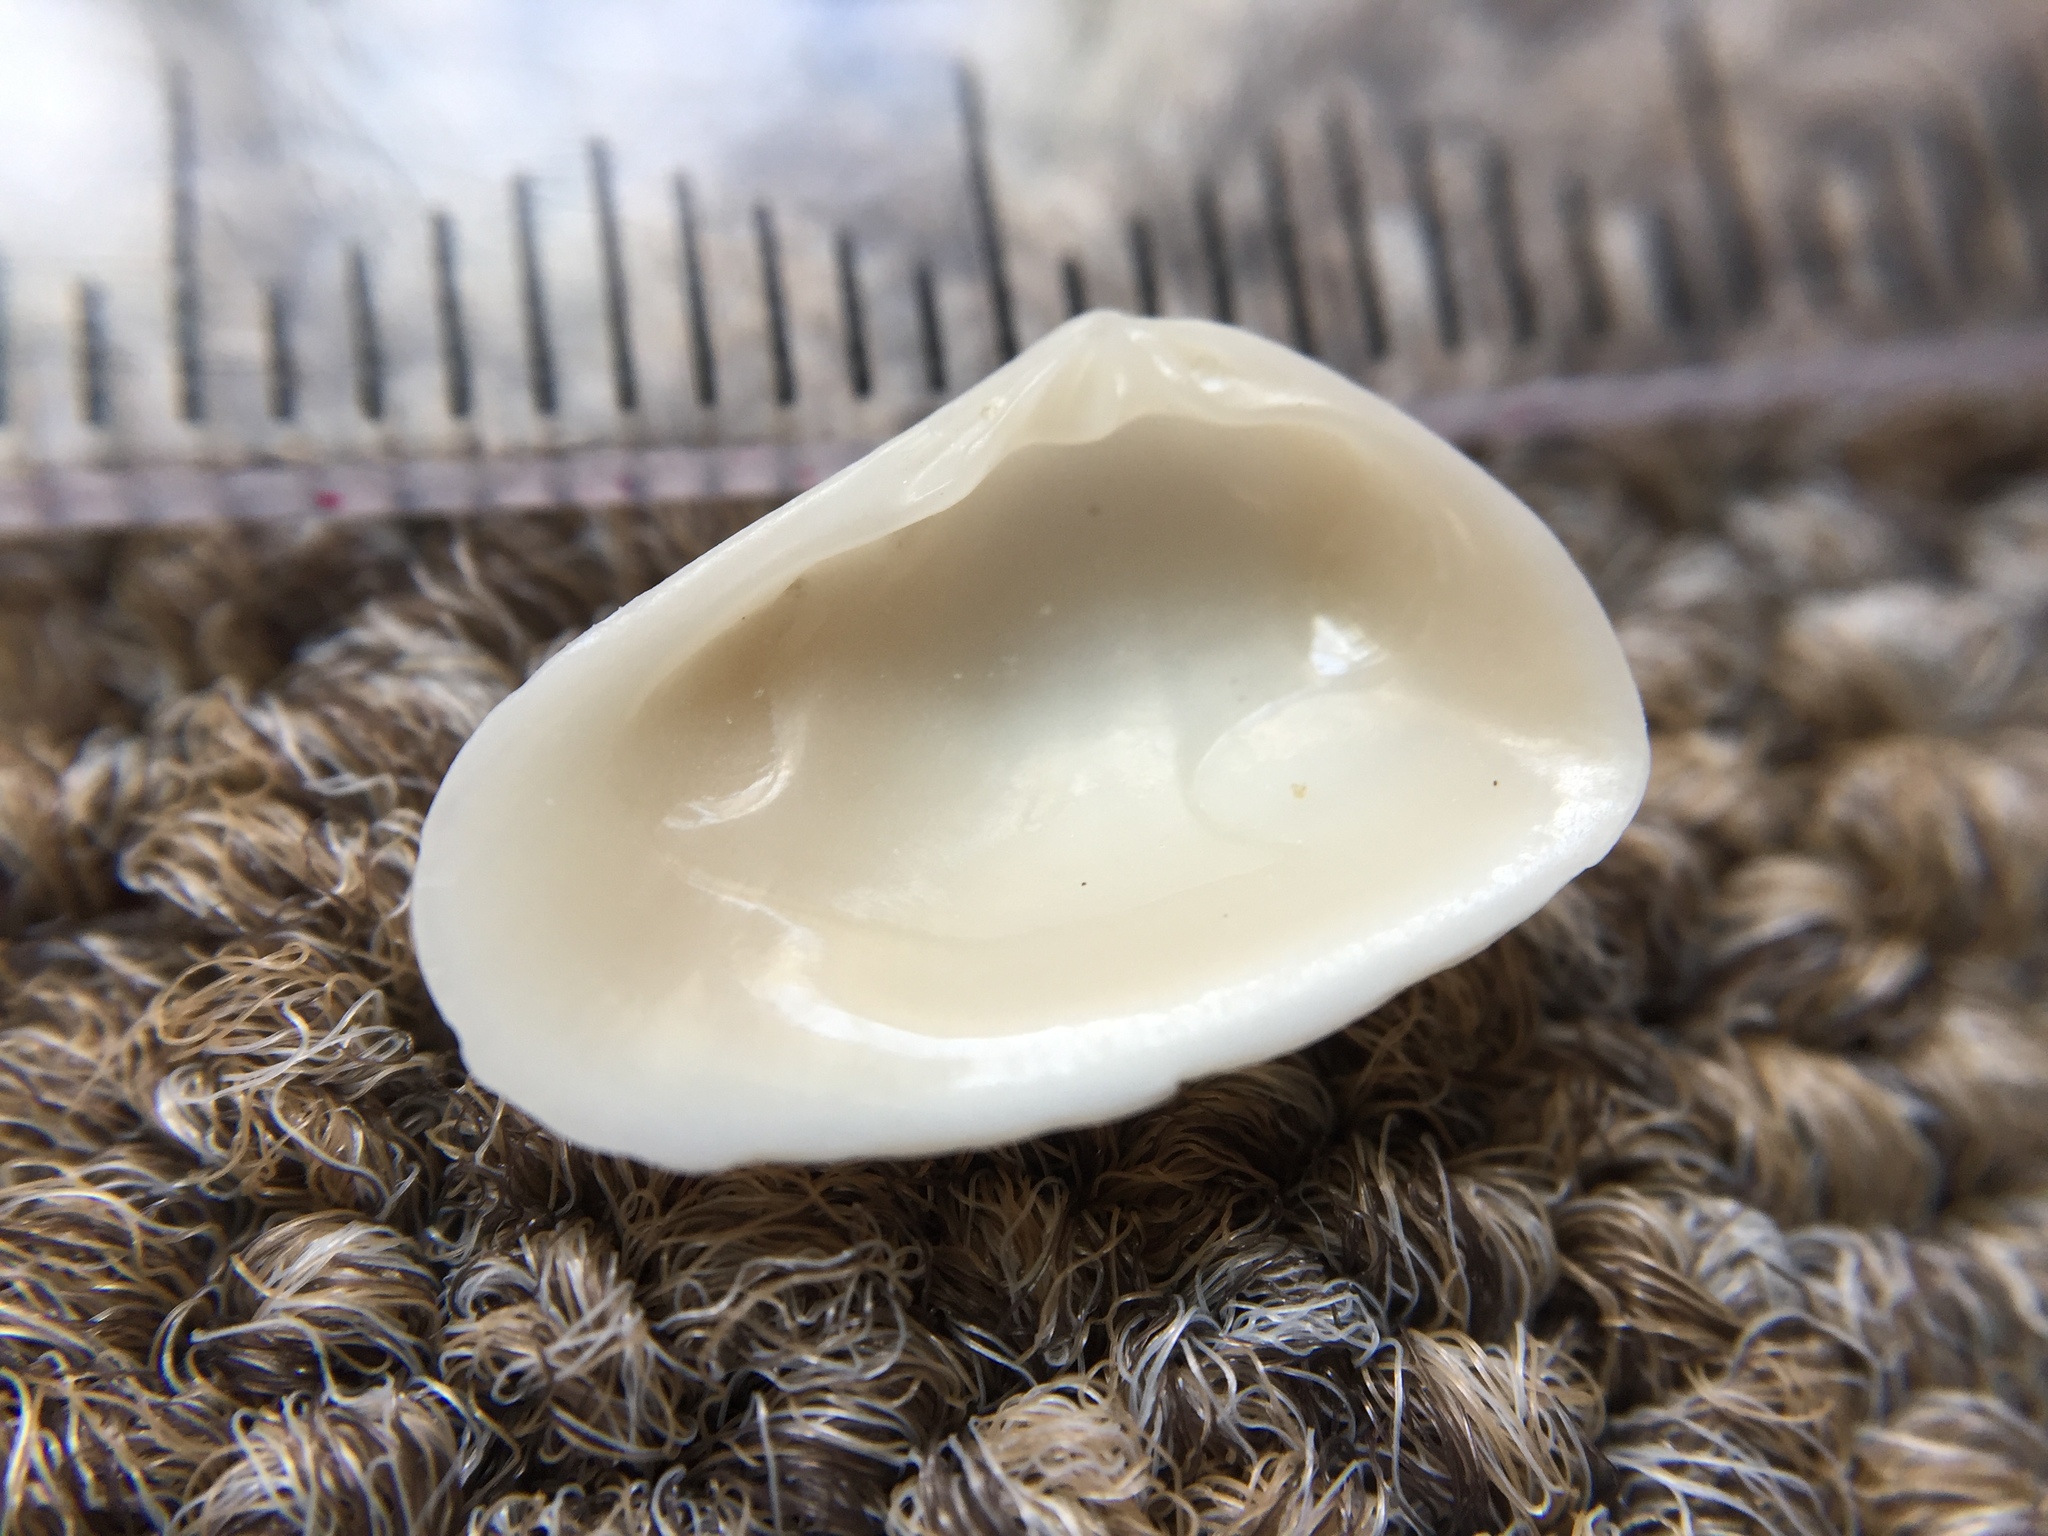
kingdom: Animalia
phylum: Mollusca
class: Bivalvia
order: Venerida
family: Mesodesmatidae
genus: Paphies
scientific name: Paphies subtriangulata
